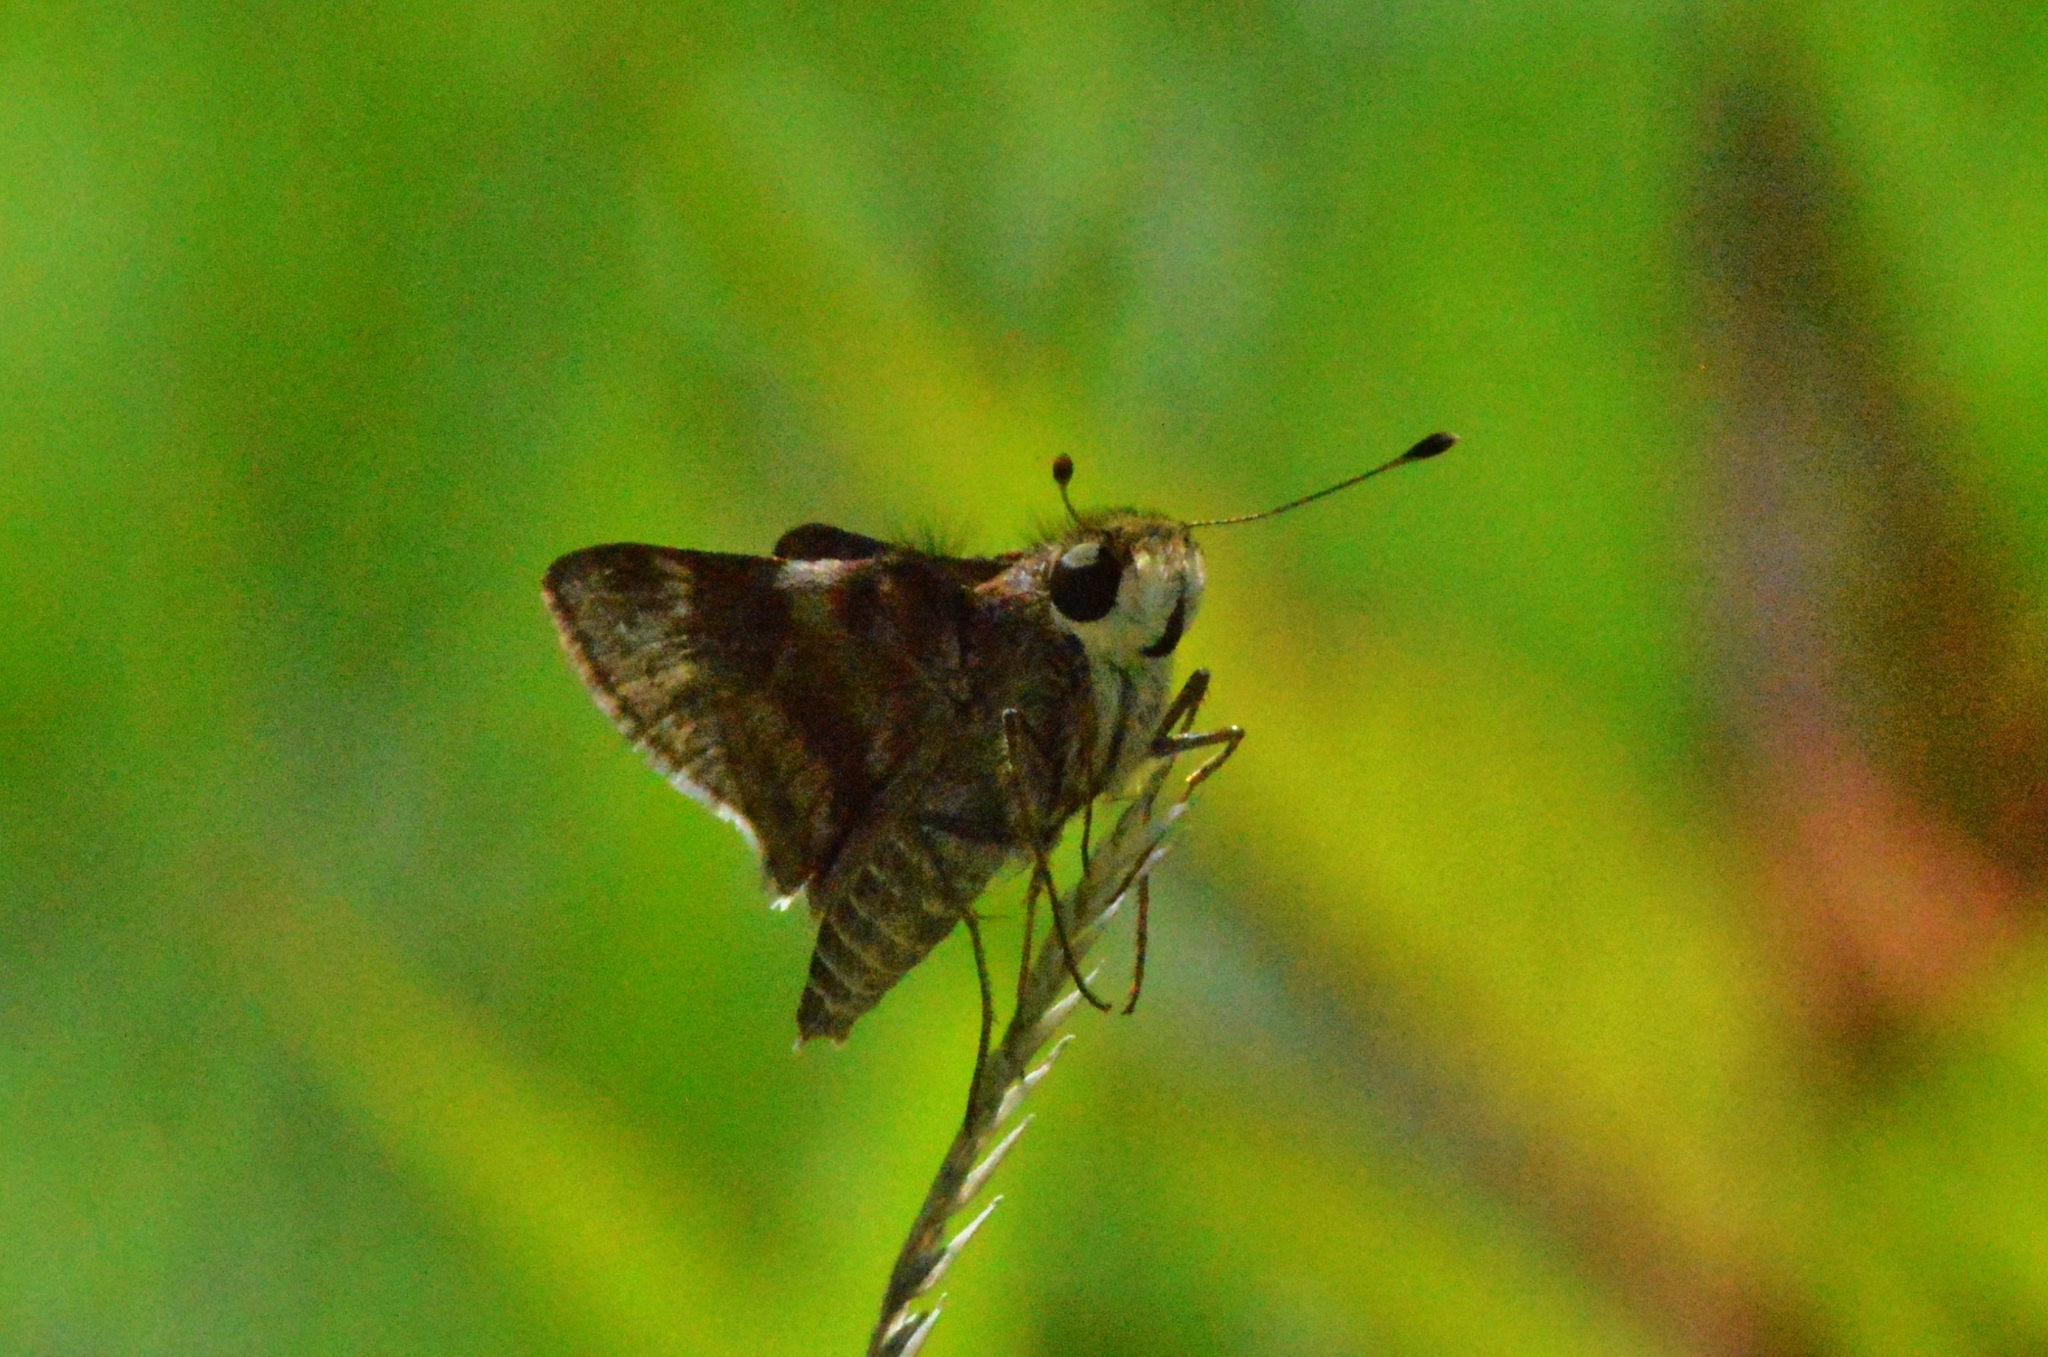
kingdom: Animalia
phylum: Arthropoda
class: Insecta
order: Lepidoptera
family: Hesperiidae
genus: Pompeius
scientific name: Pompeius pompeius
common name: Pompeius skipper
